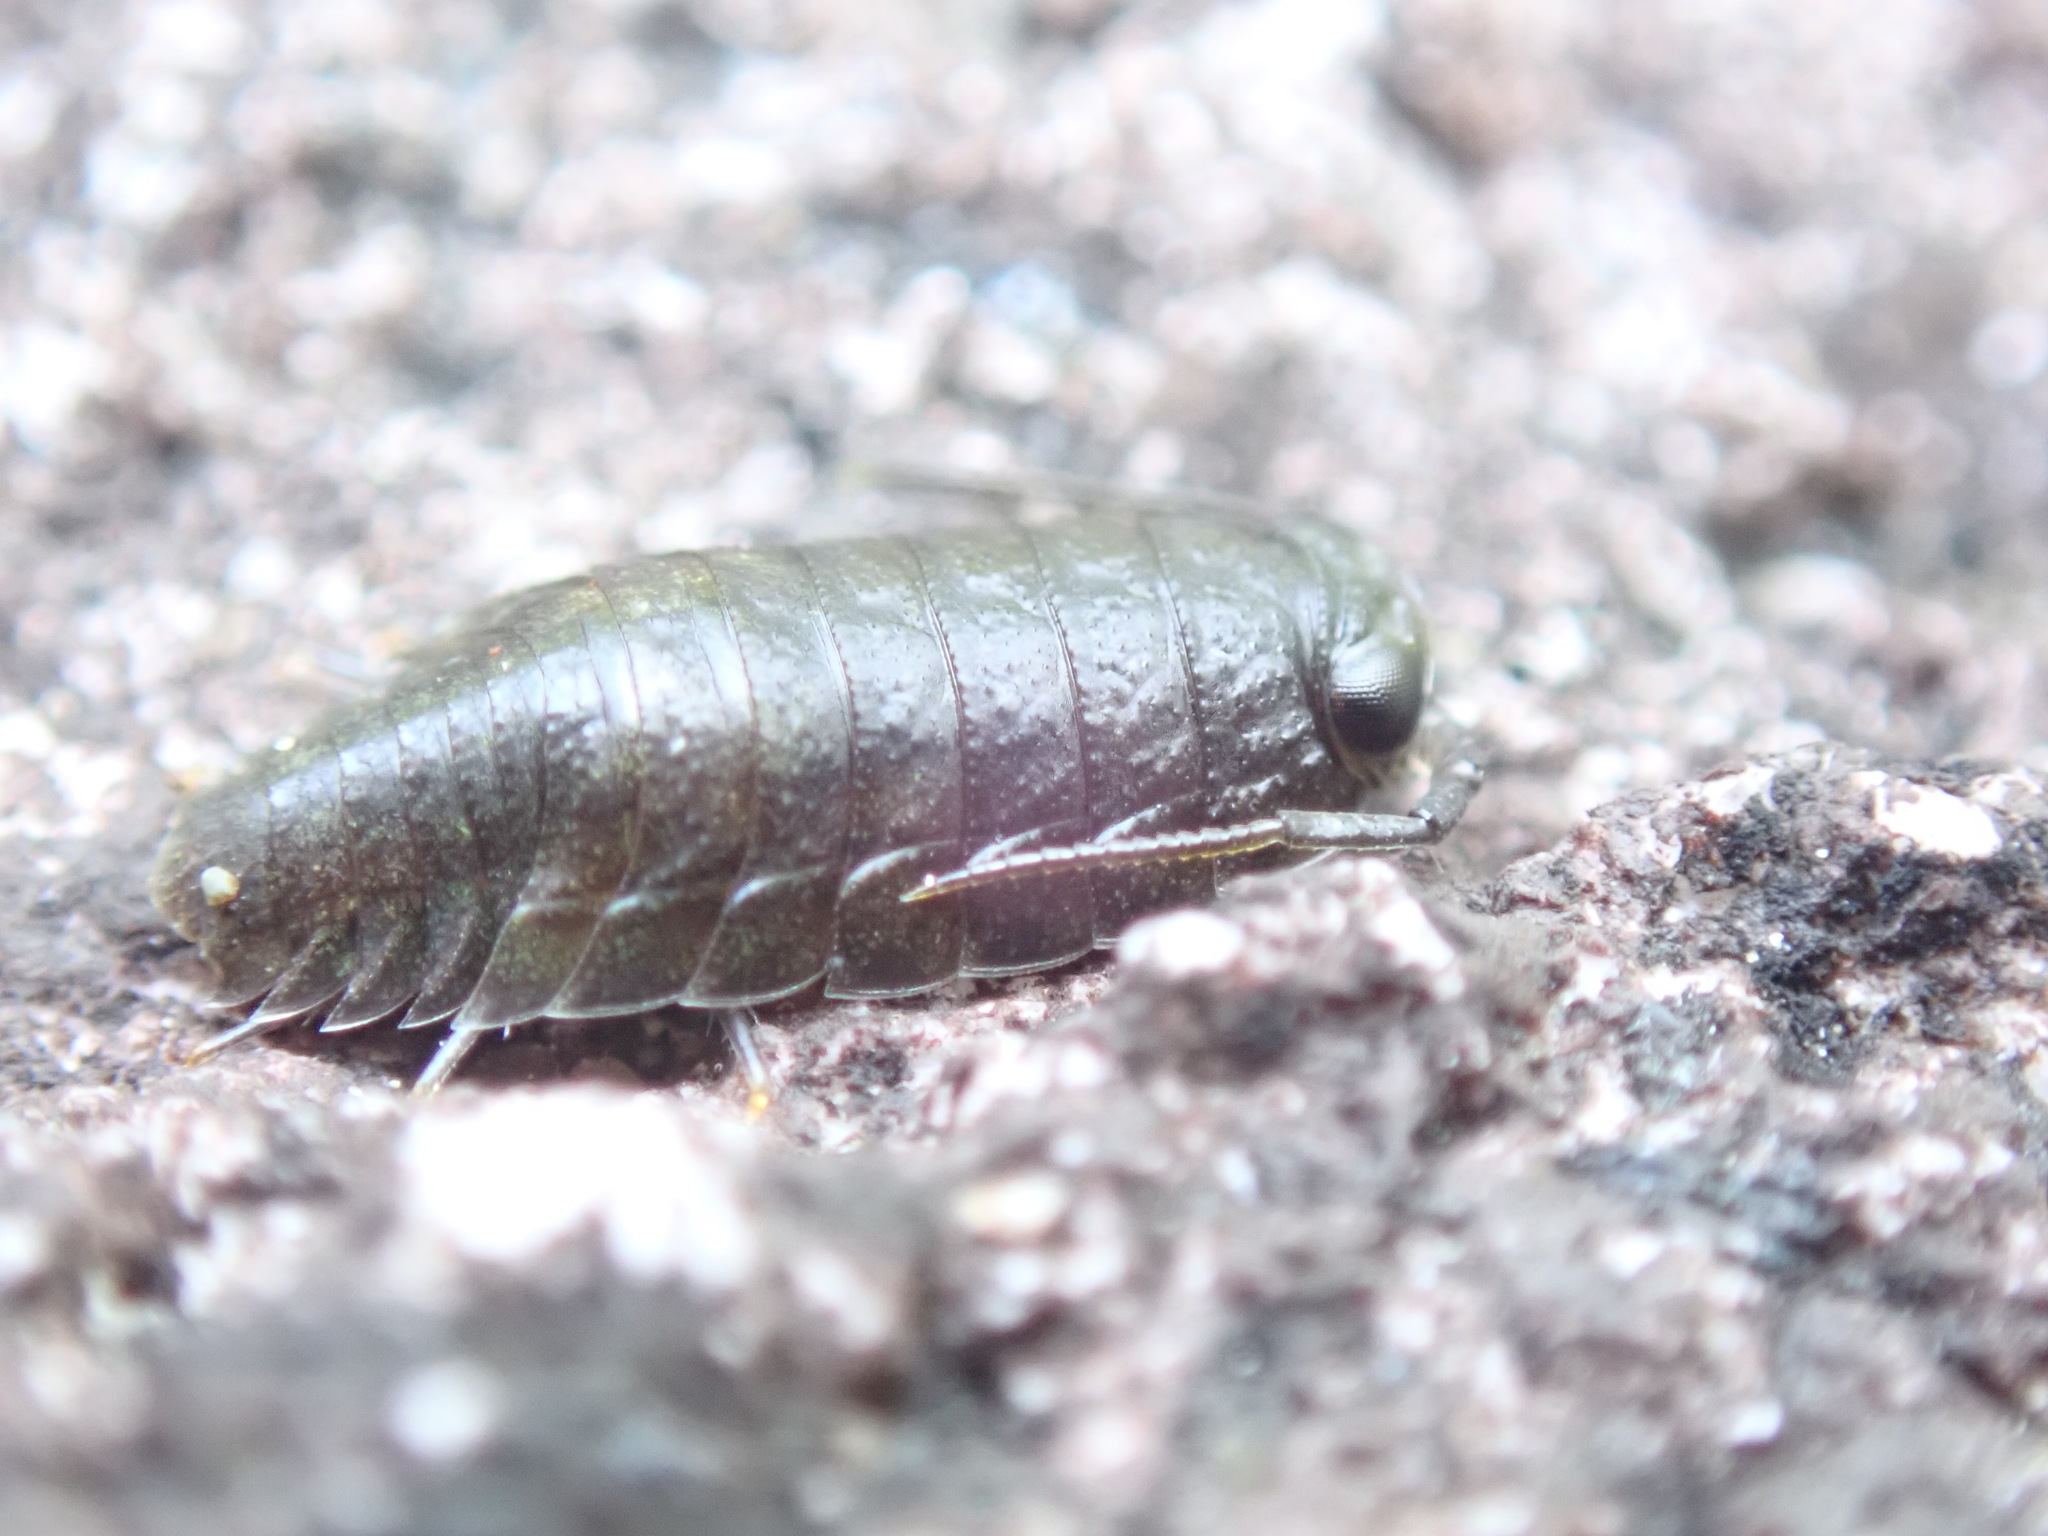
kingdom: Animalia
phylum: Arthropoda
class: Malacostraca
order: Isopoda
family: Ligiidae
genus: Ligia
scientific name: Ligia pallasii
